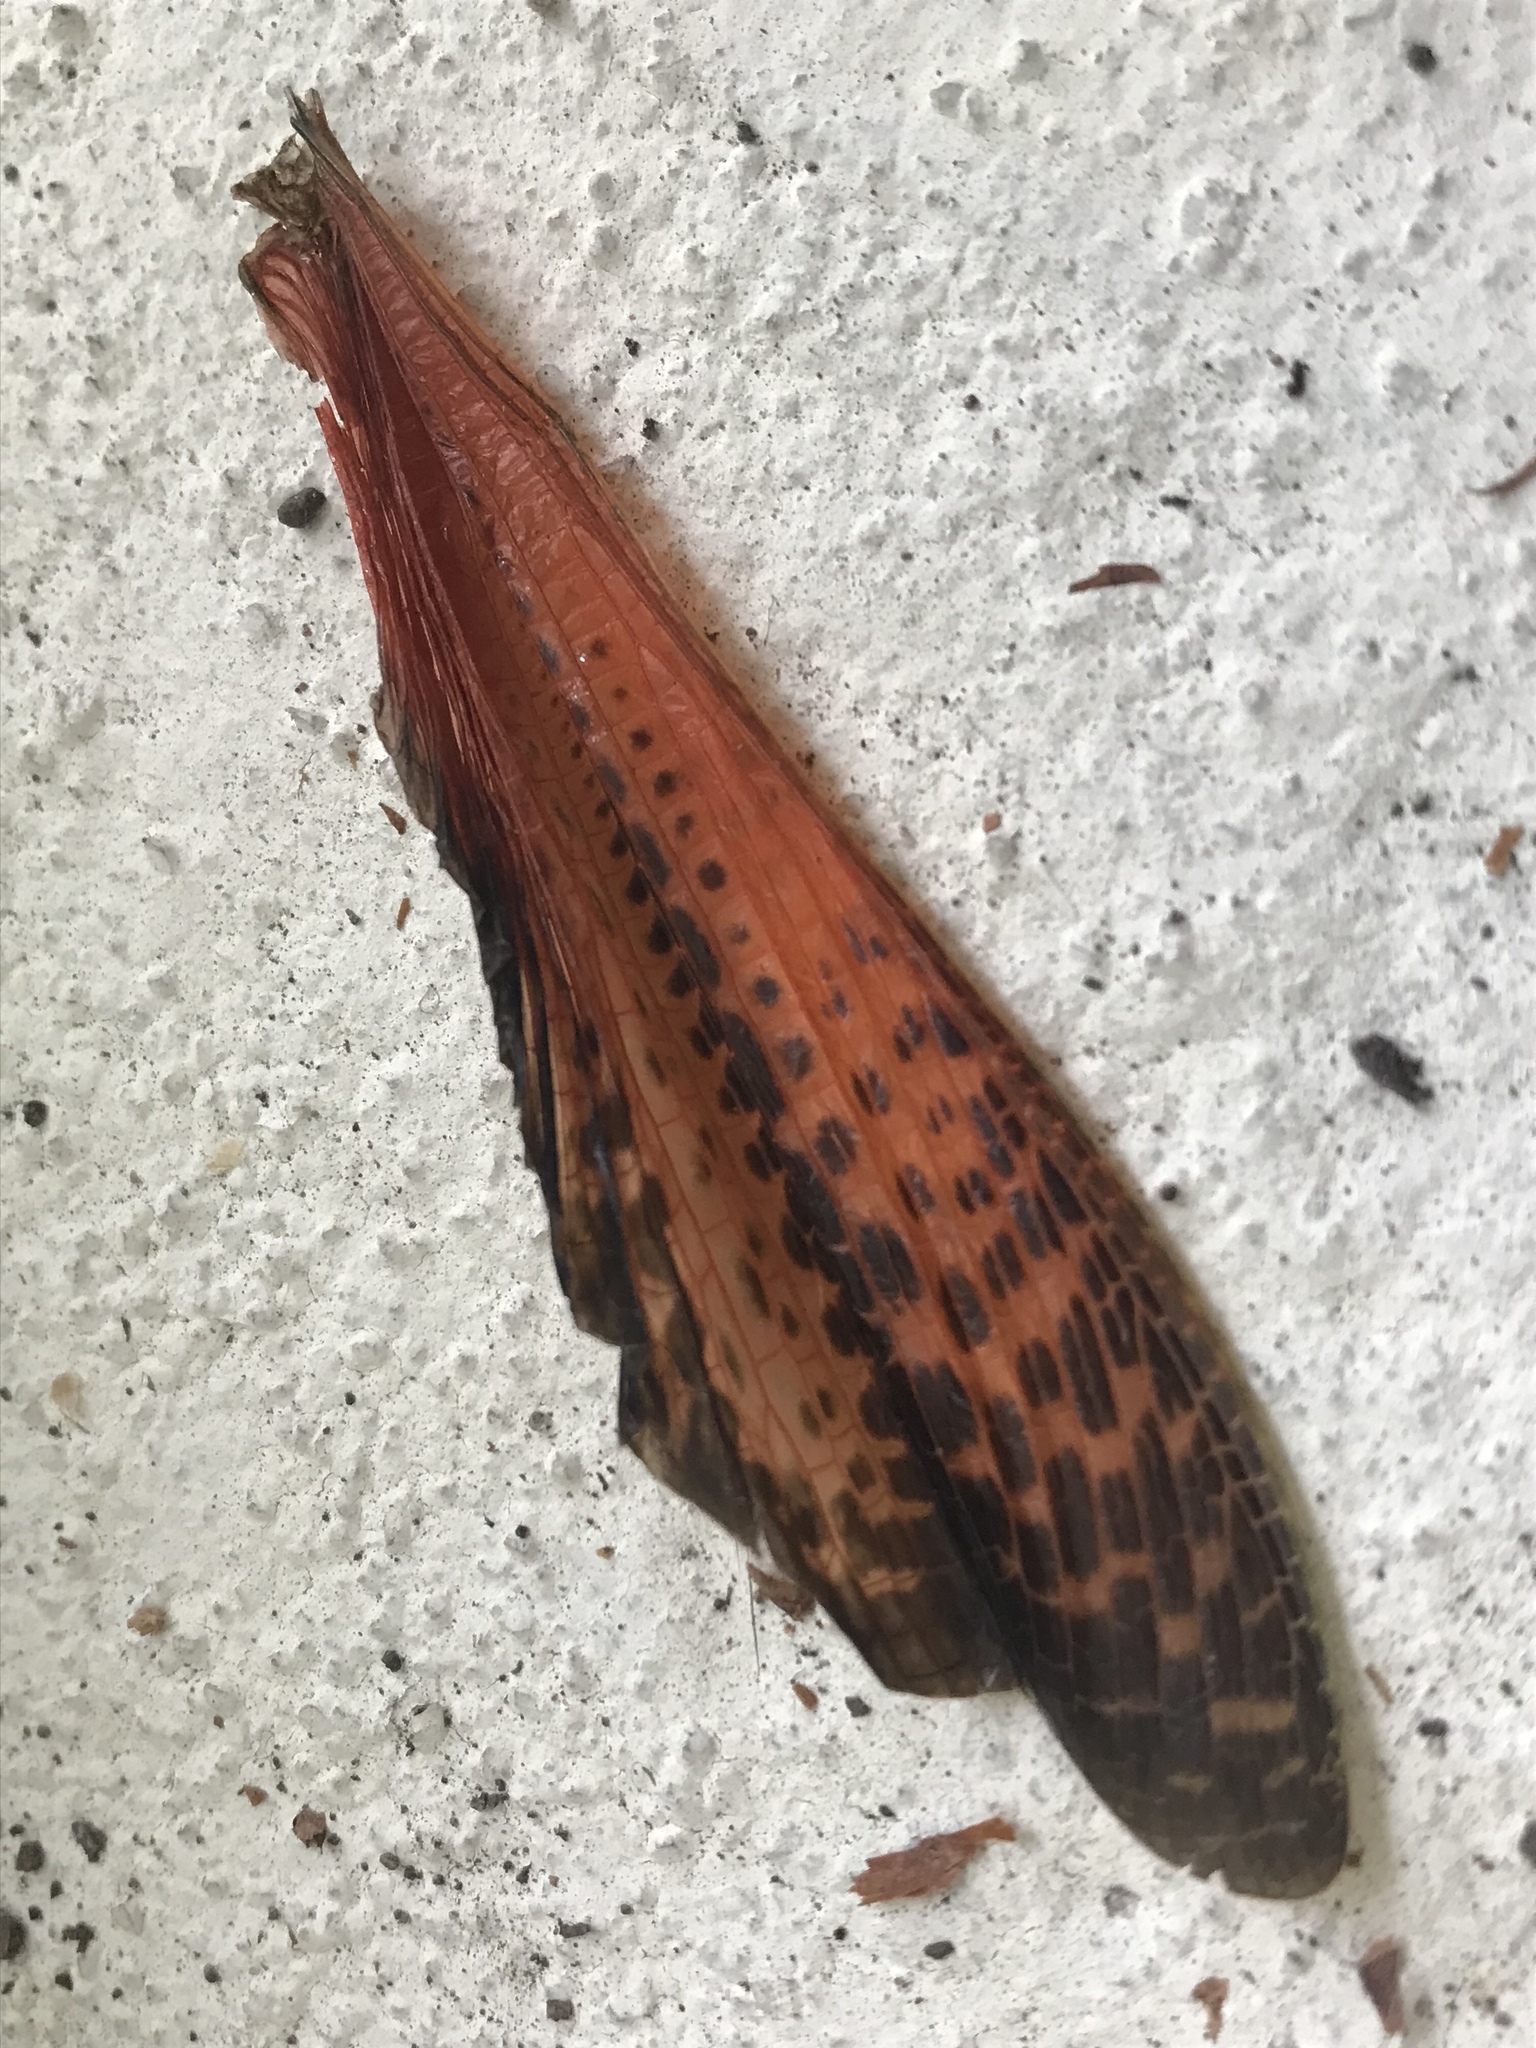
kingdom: Animalia
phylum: Arthropoda
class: Insecta
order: Orthoptera
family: Romaleidae
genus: Tropidacris
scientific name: Tropidacris cristata
